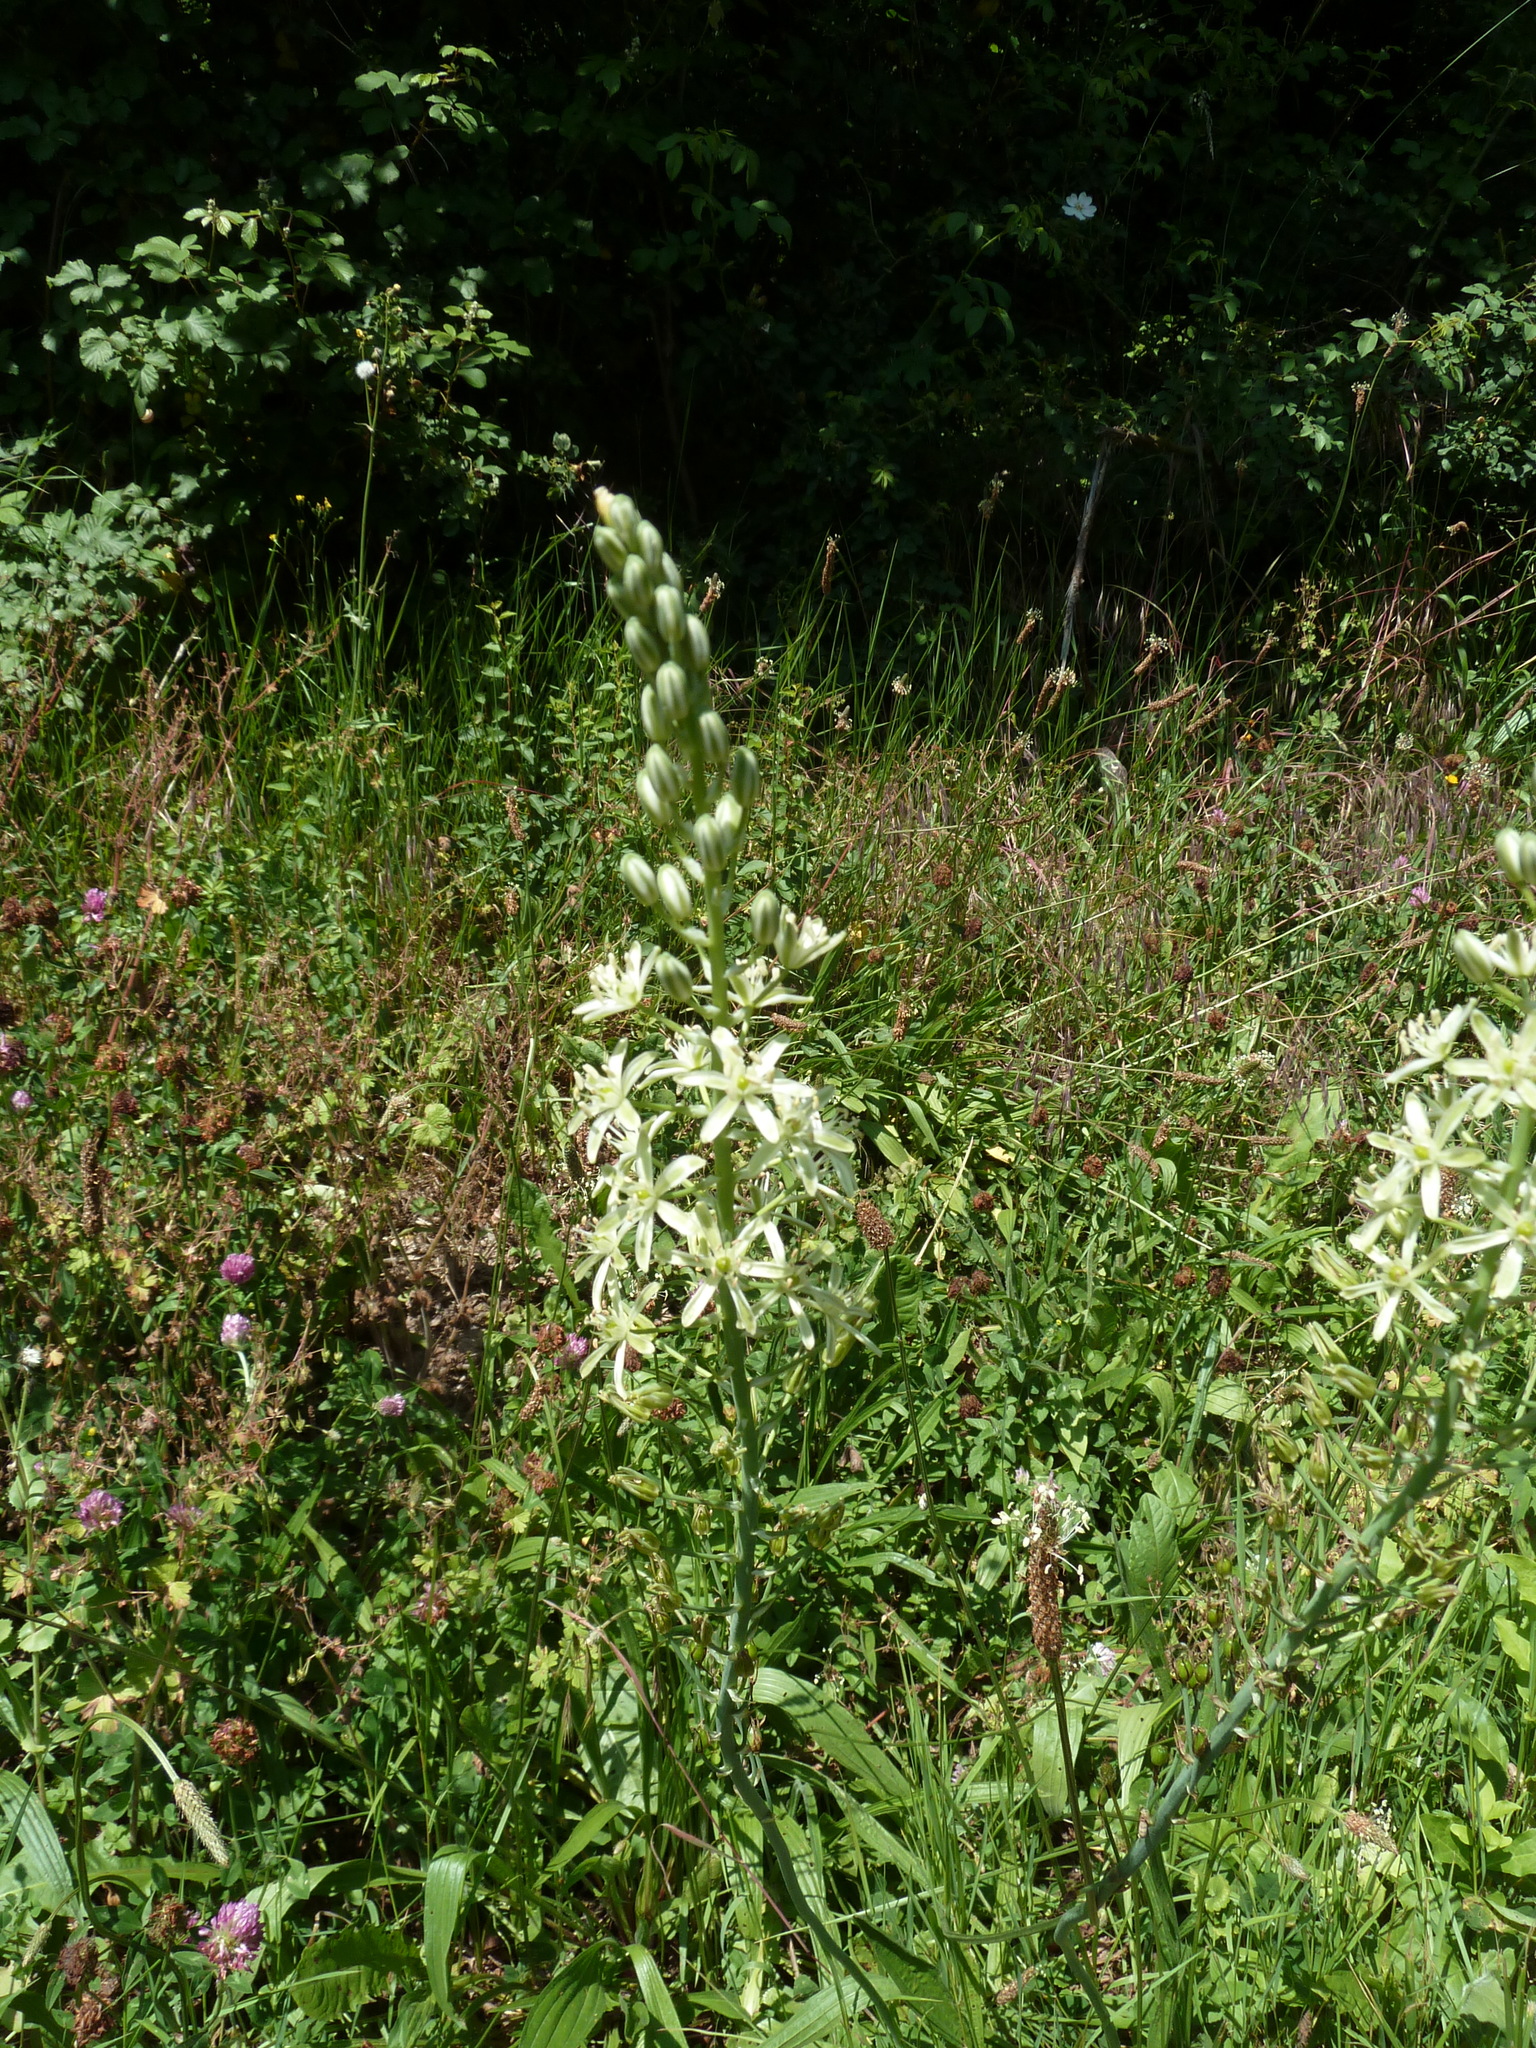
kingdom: Plantae
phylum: Tracheophyta
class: Liliopsida
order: Asparagales
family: Asparagaceae
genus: Ornithogalum
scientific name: Ornithogalum pyrenaicum
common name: Spiked star-of-bethlehem
